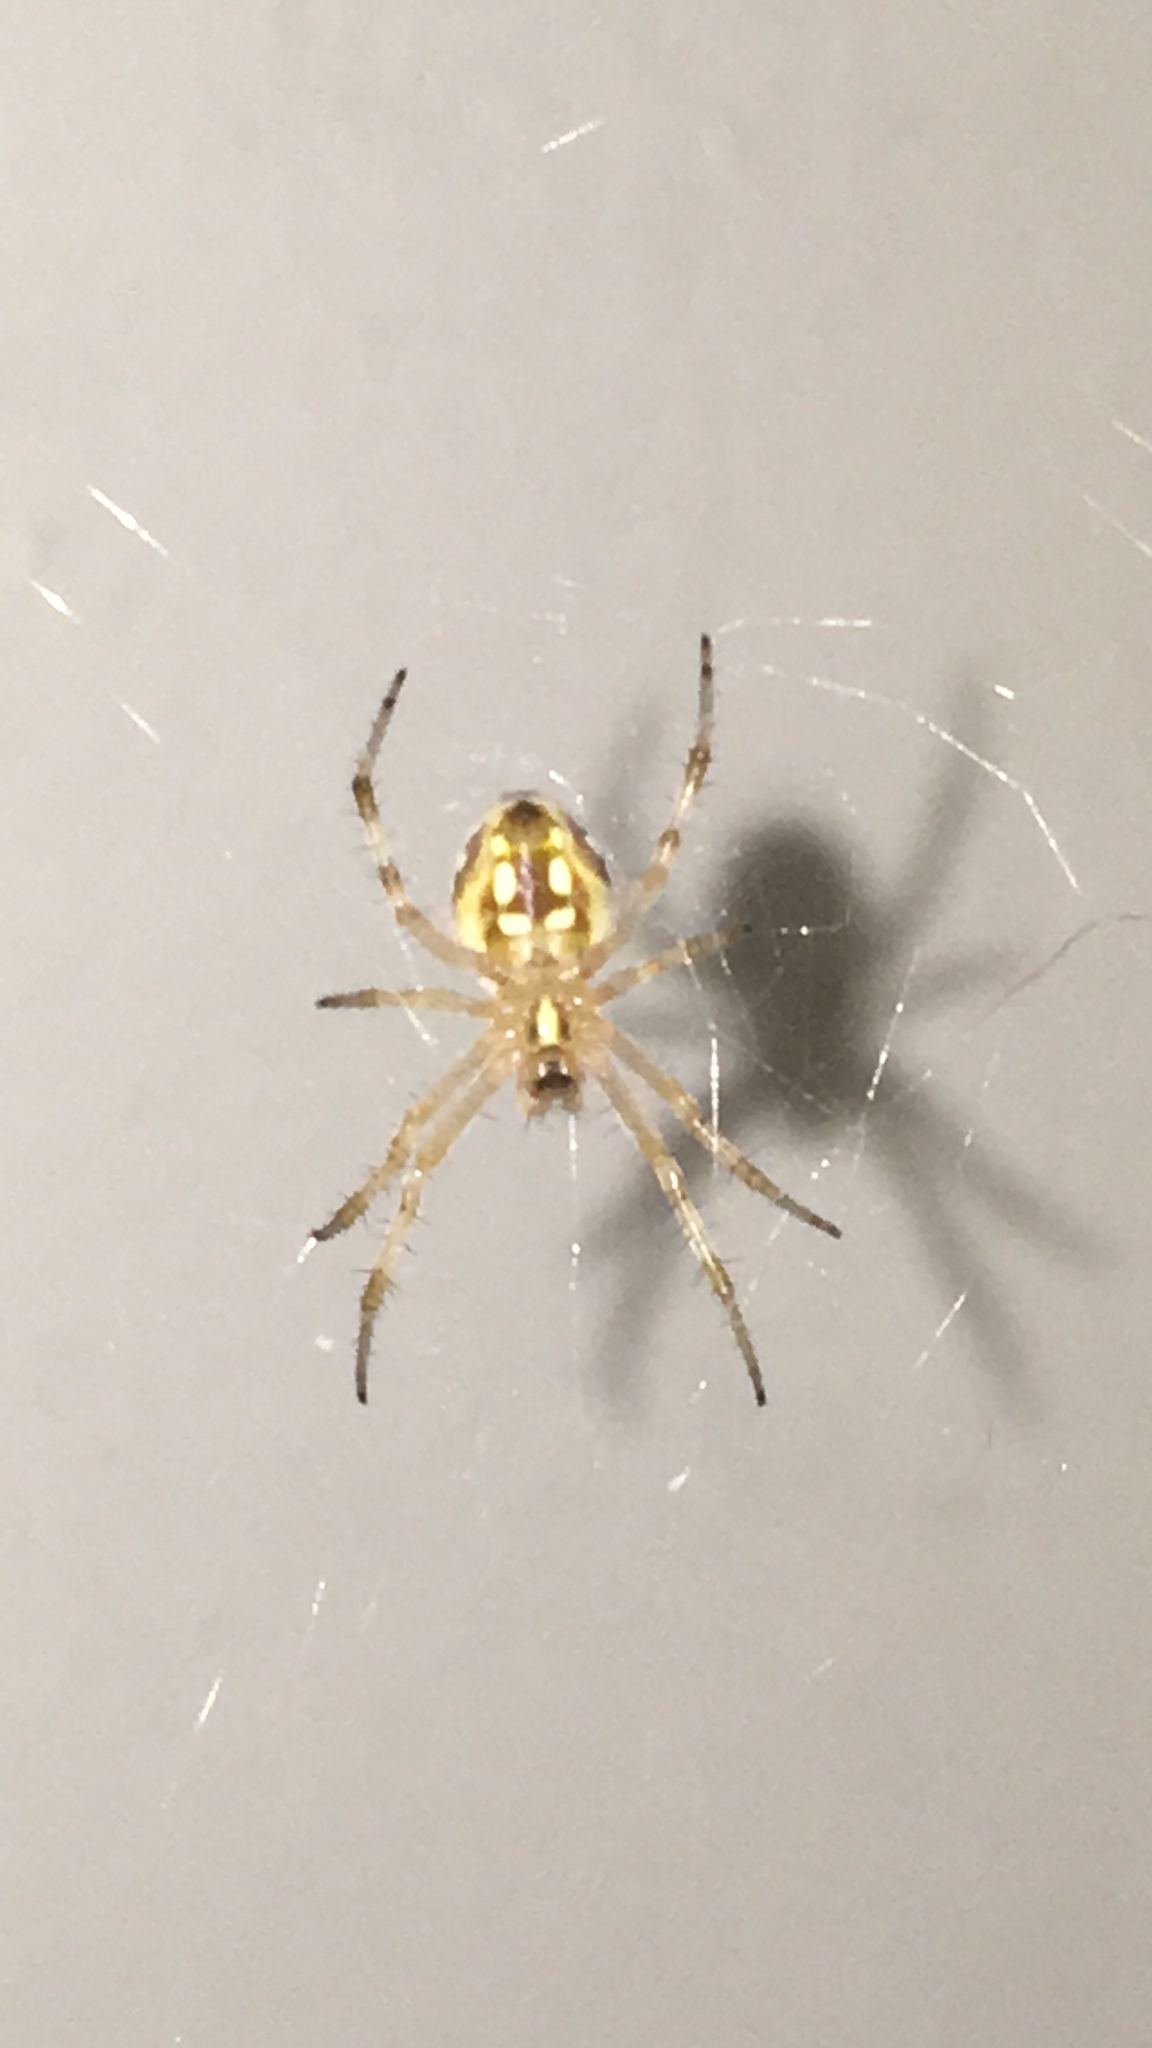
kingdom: Animalia
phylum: Arthropoda
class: Arachnida
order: Araneae
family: Araneidae
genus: Neoscona
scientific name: Neoscona oaxacensis
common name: Orb weavers
